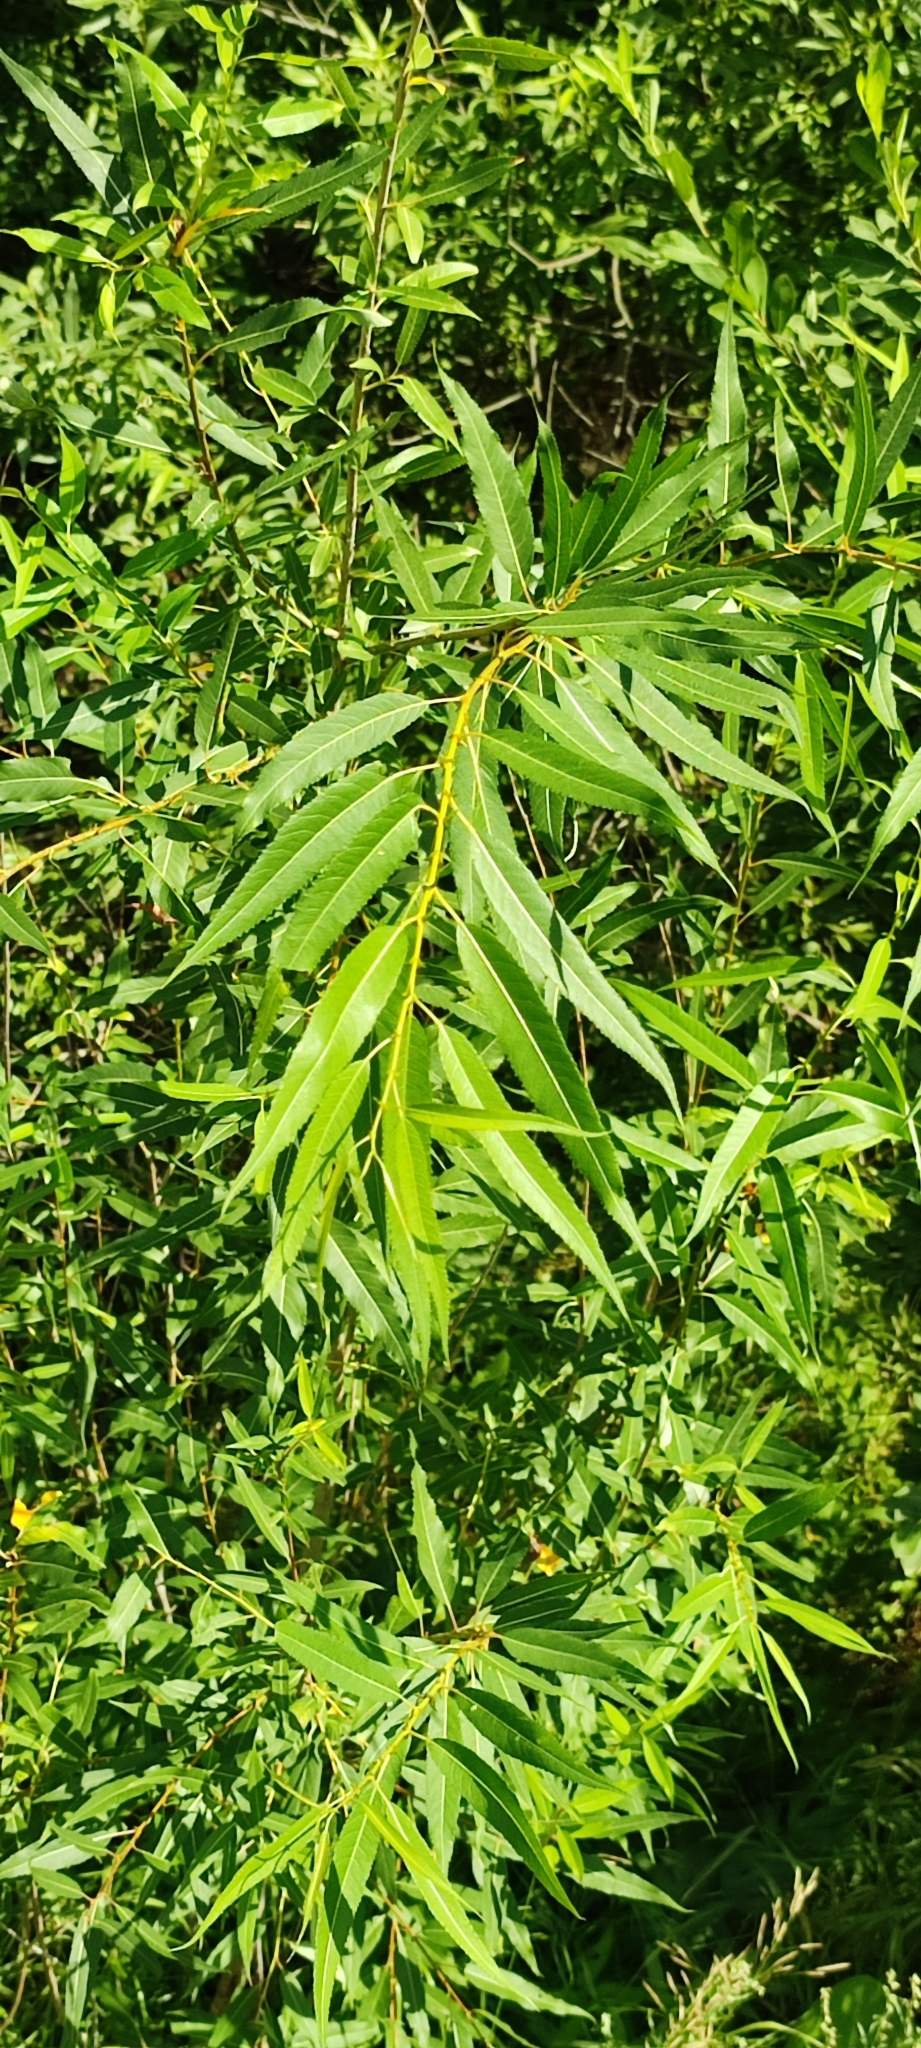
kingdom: Plantae
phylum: Tracheophyta
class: Magnoliopsida
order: Malpighiales
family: Salicaceae
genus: Salix
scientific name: Salix triandra
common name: Almond willow
